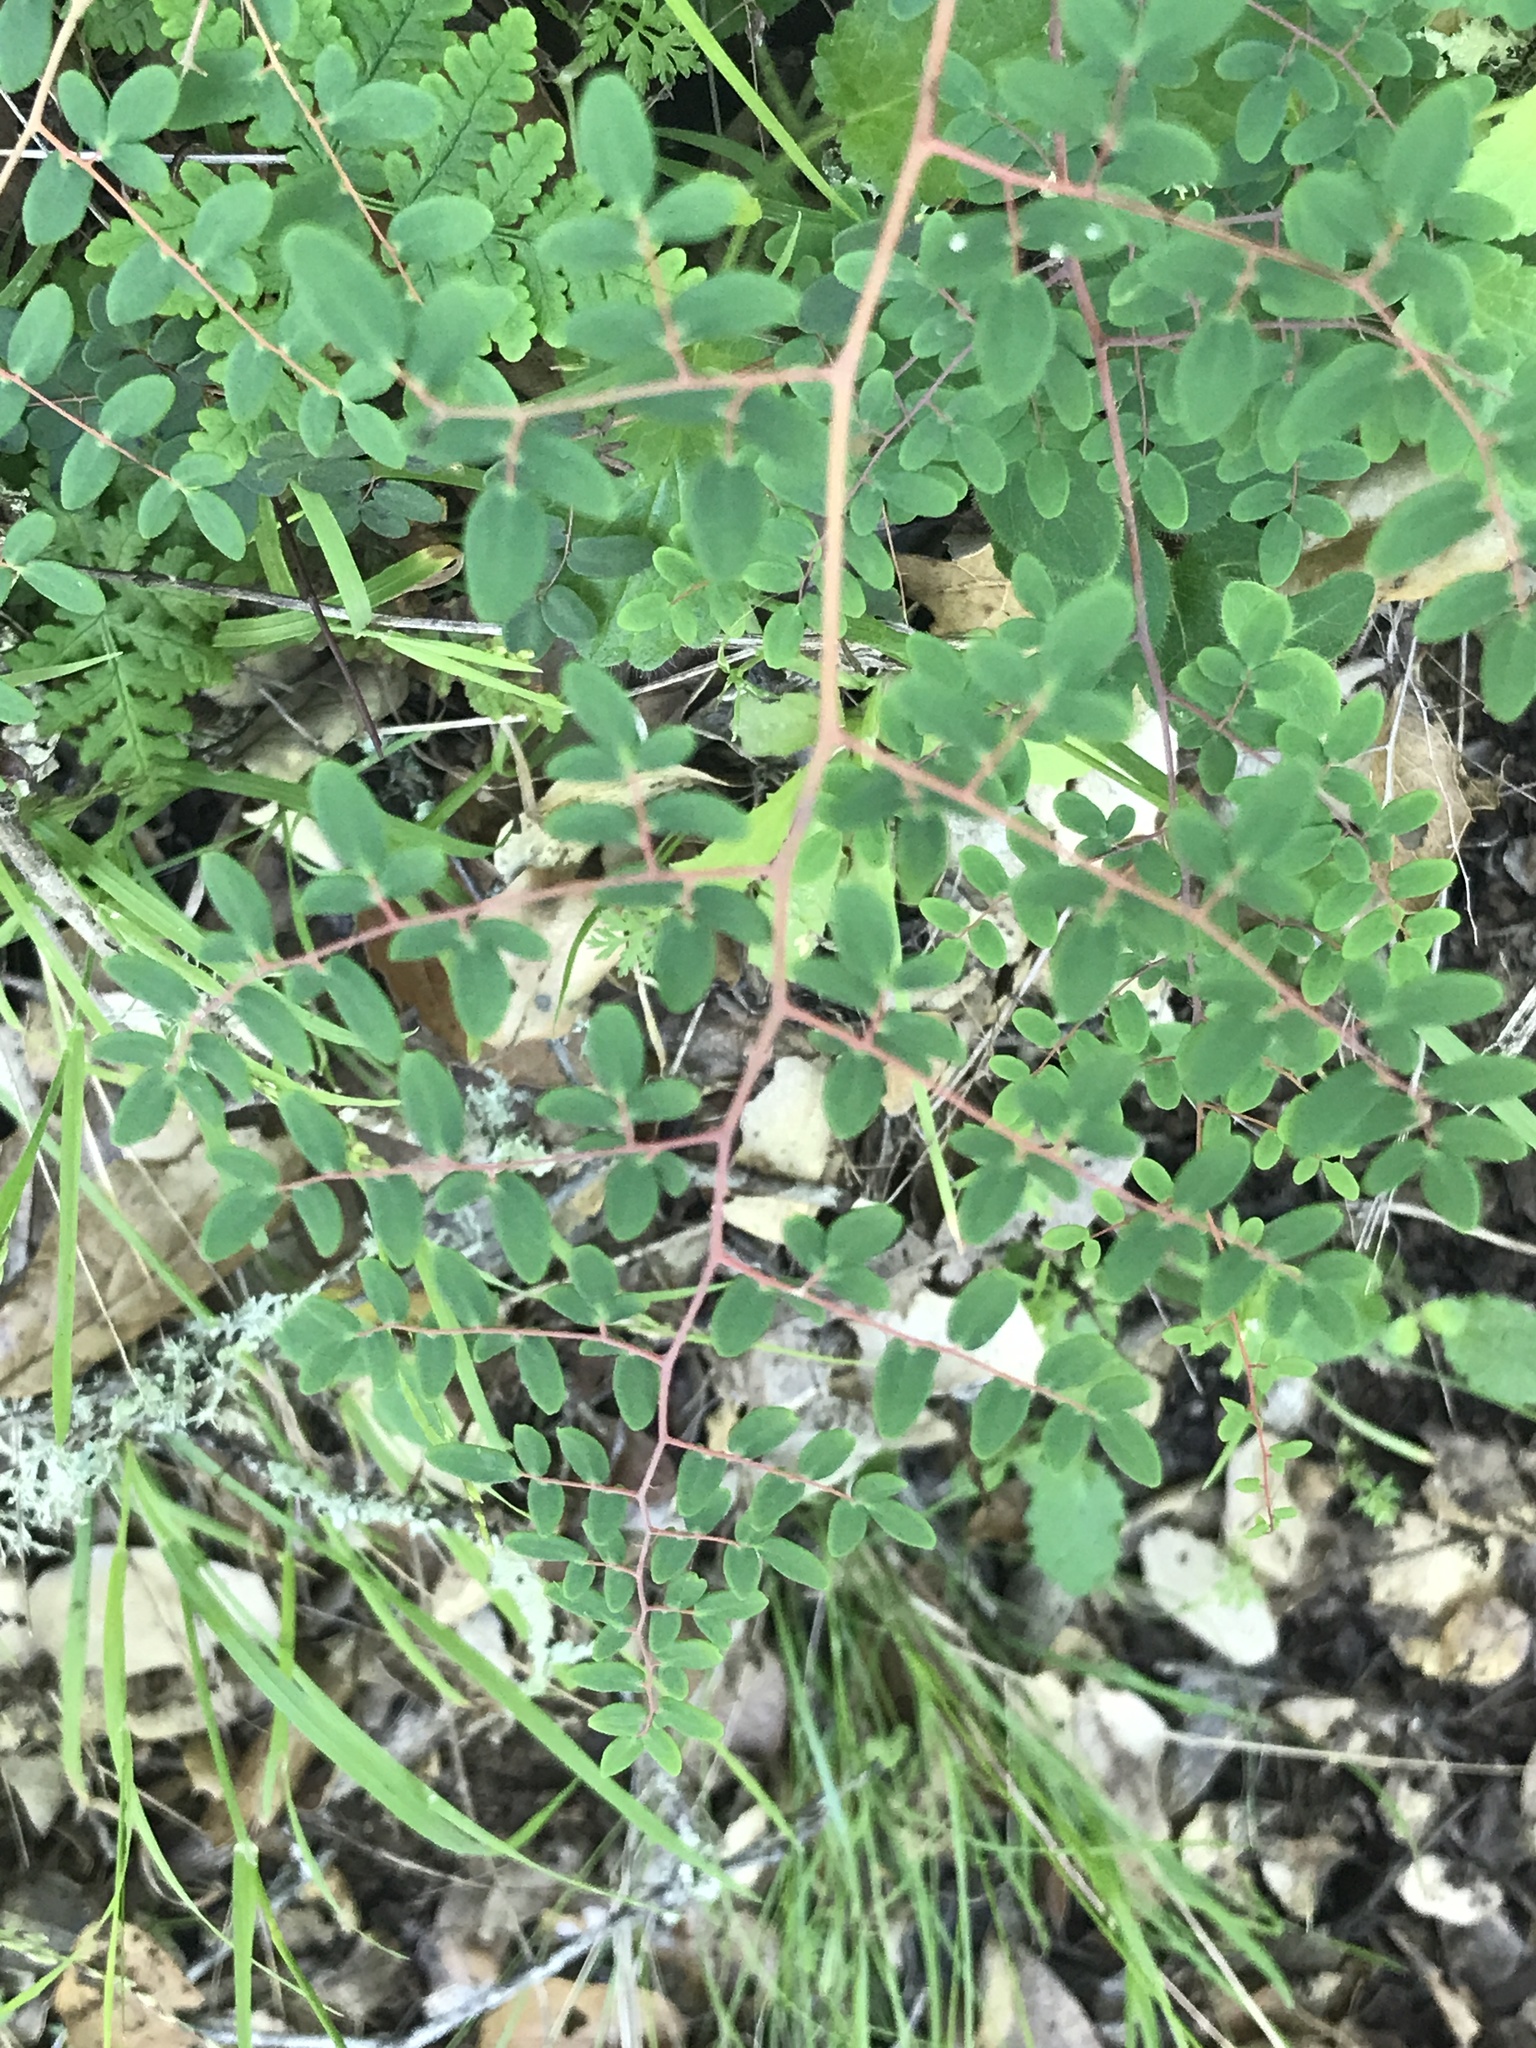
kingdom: Plantae
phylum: Tracheophyta
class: Polypodiopsida
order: Polypodiales
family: Pteridaceae
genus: Pellaea
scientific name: Pellaea andromedifolia
